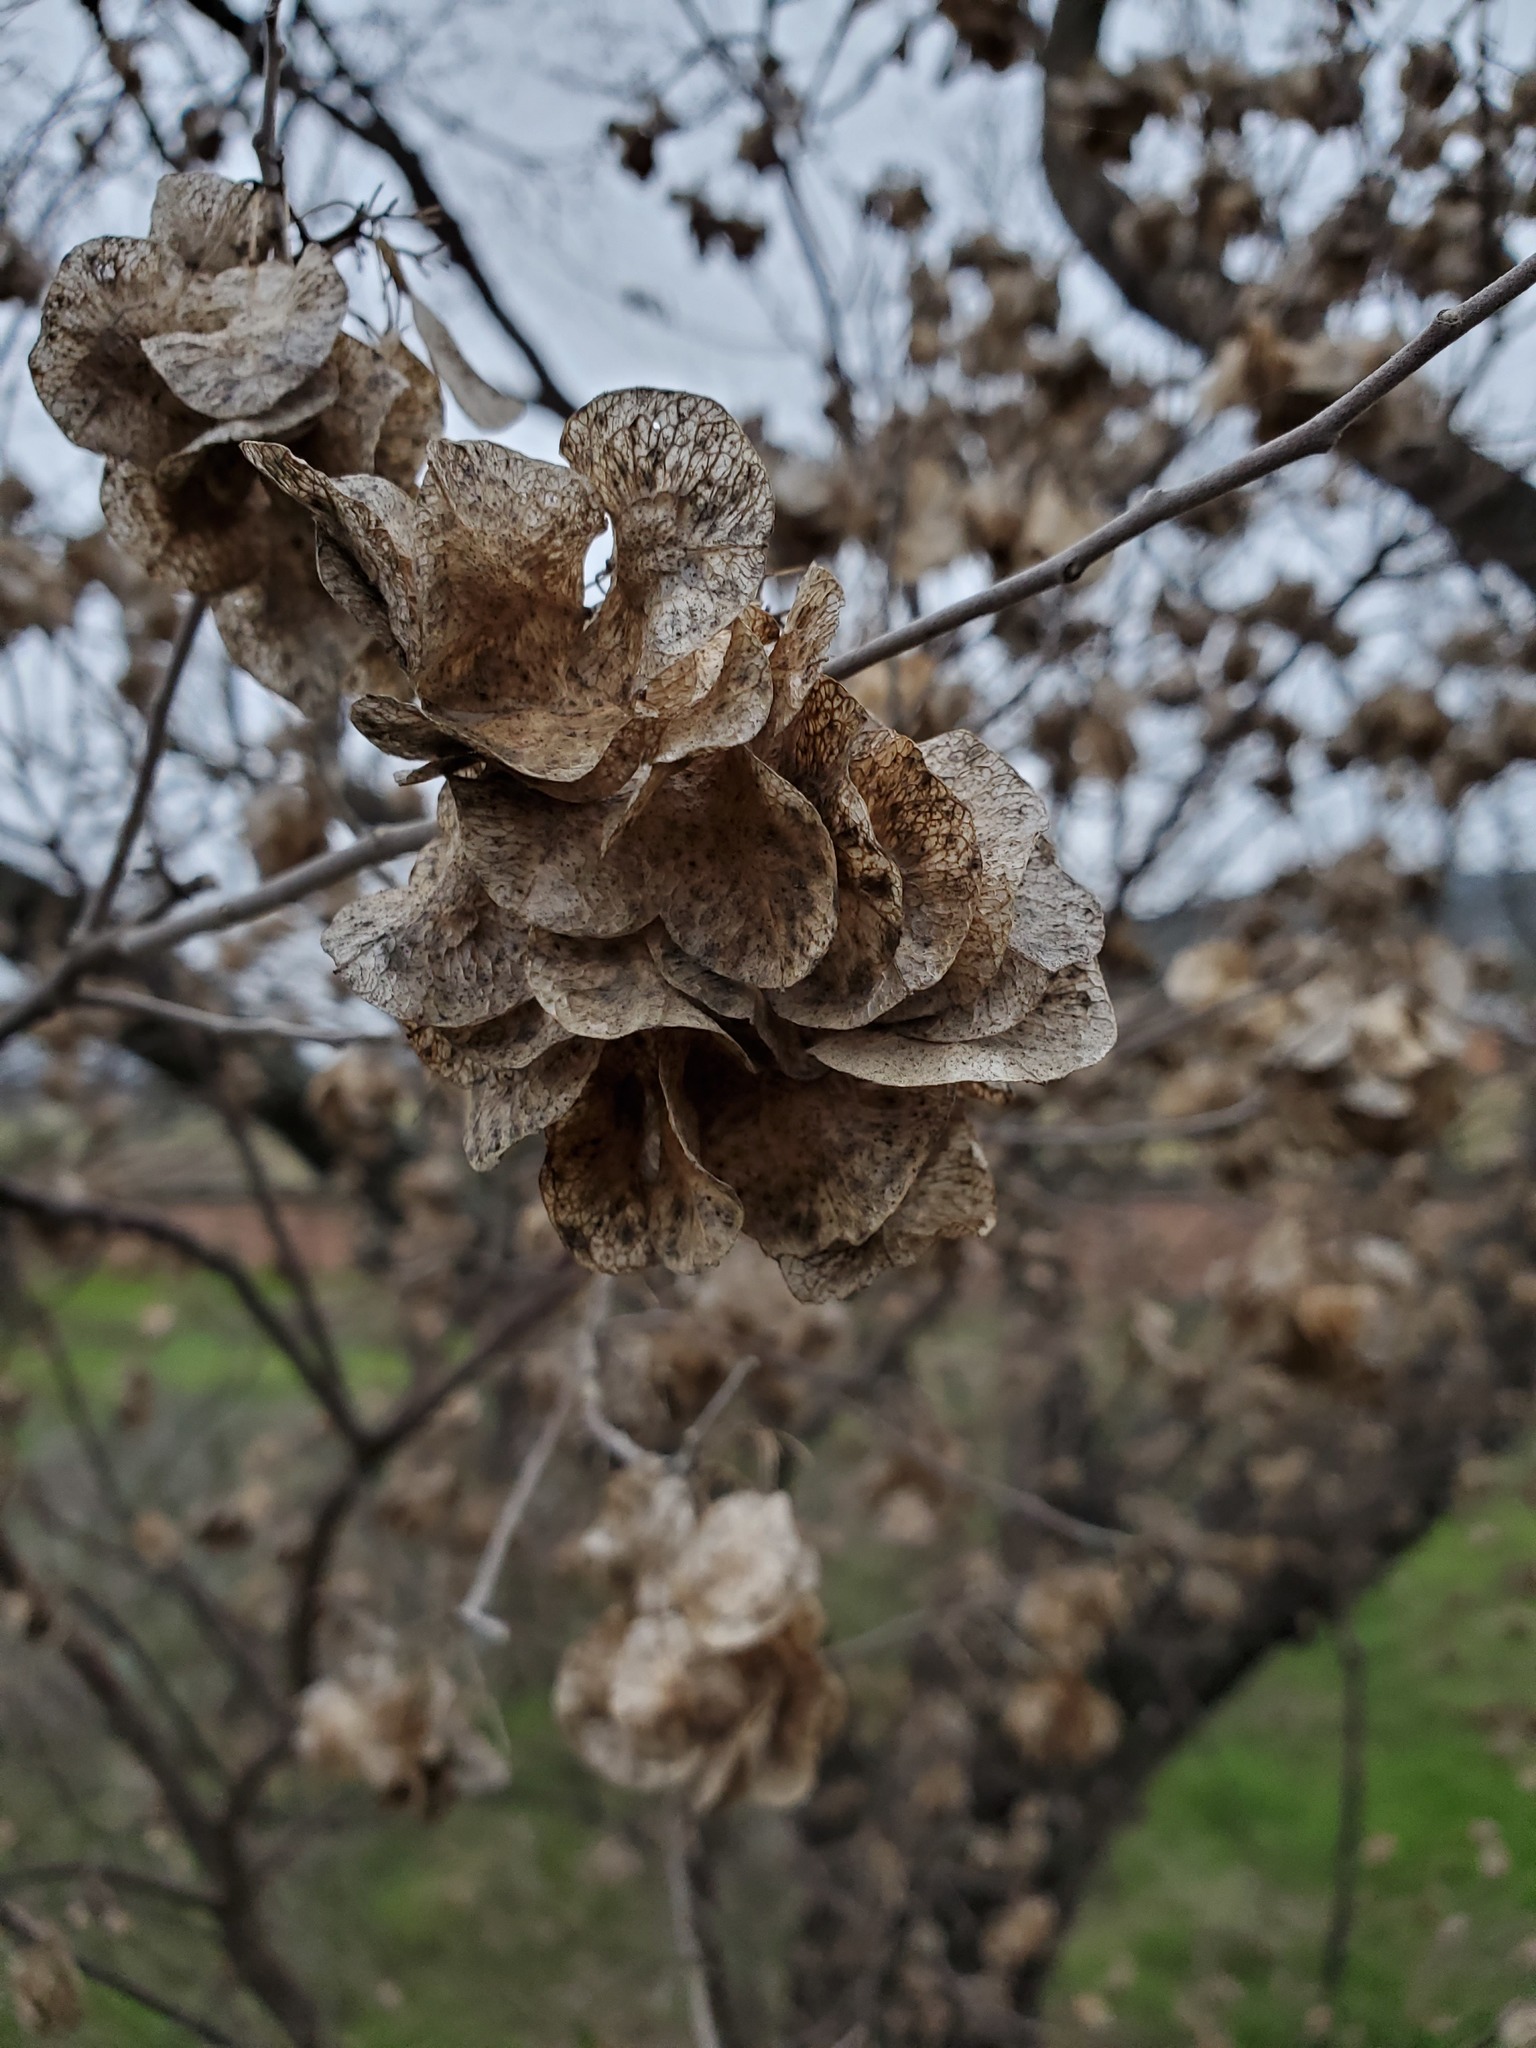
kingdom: Plantae
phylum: Tracheophyta
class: Magnoliopsida
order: Sapindales
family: Rutaceae
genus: Ptelea
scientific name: Ptelea trifoliata
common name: Common hop-tree
